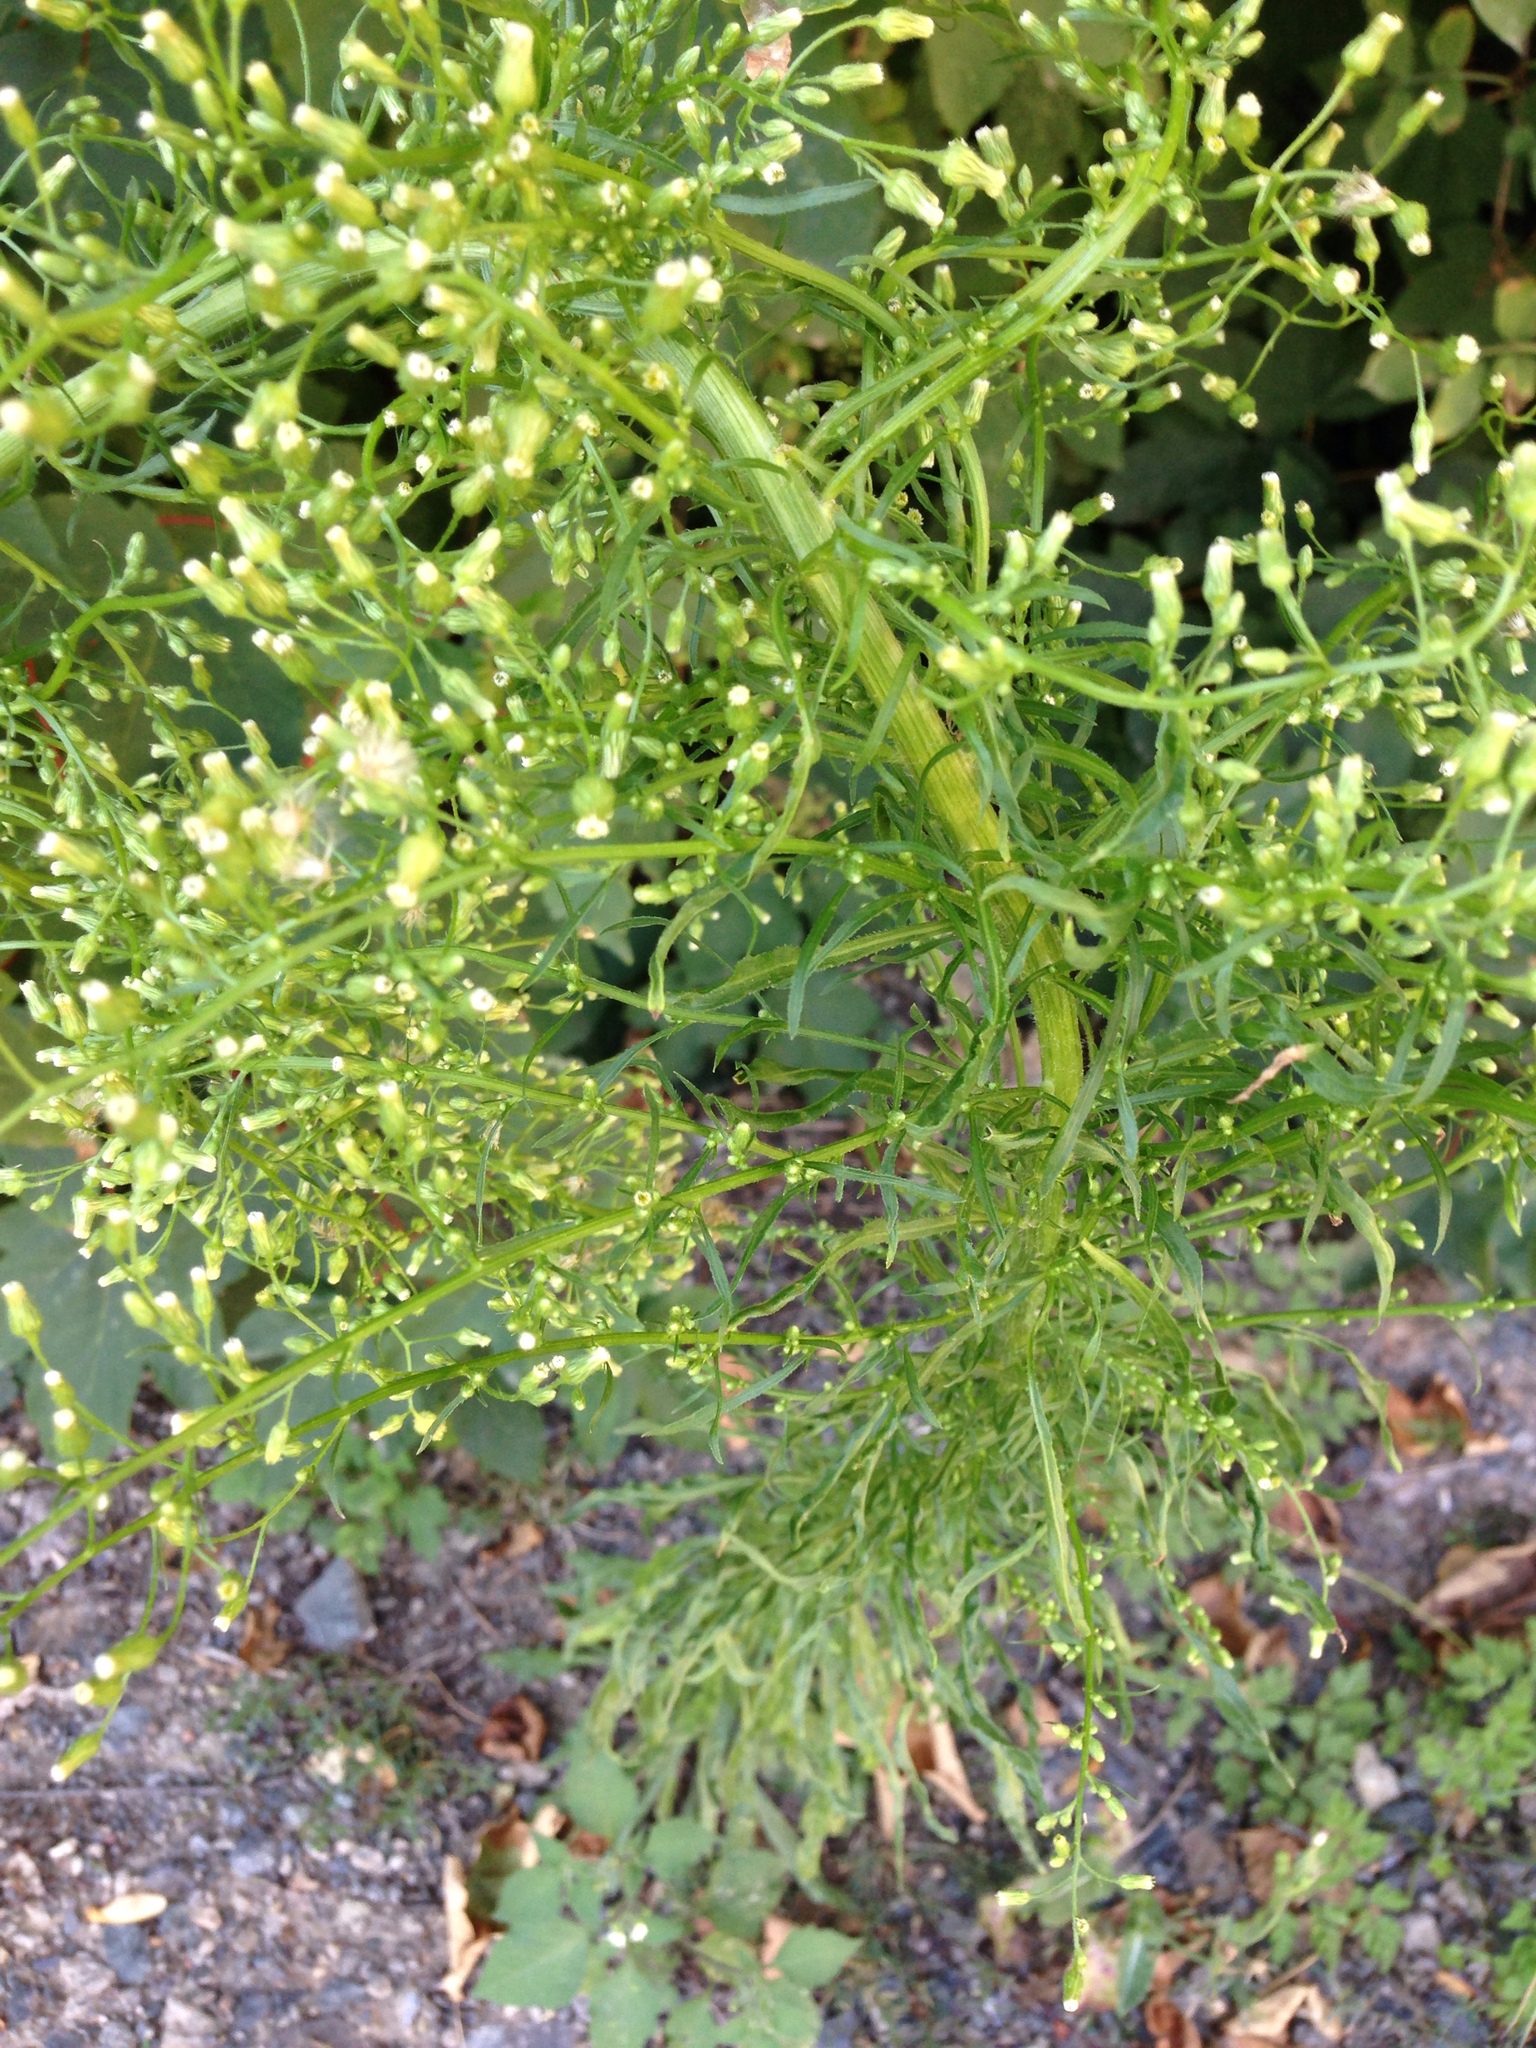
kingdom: Plantae
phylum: Tracheophyta
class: Magnoliopsida
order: Asterales
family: Asteraceae
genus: Erigeron
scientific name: Erigeron canadensis
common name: Canadian fleabane
